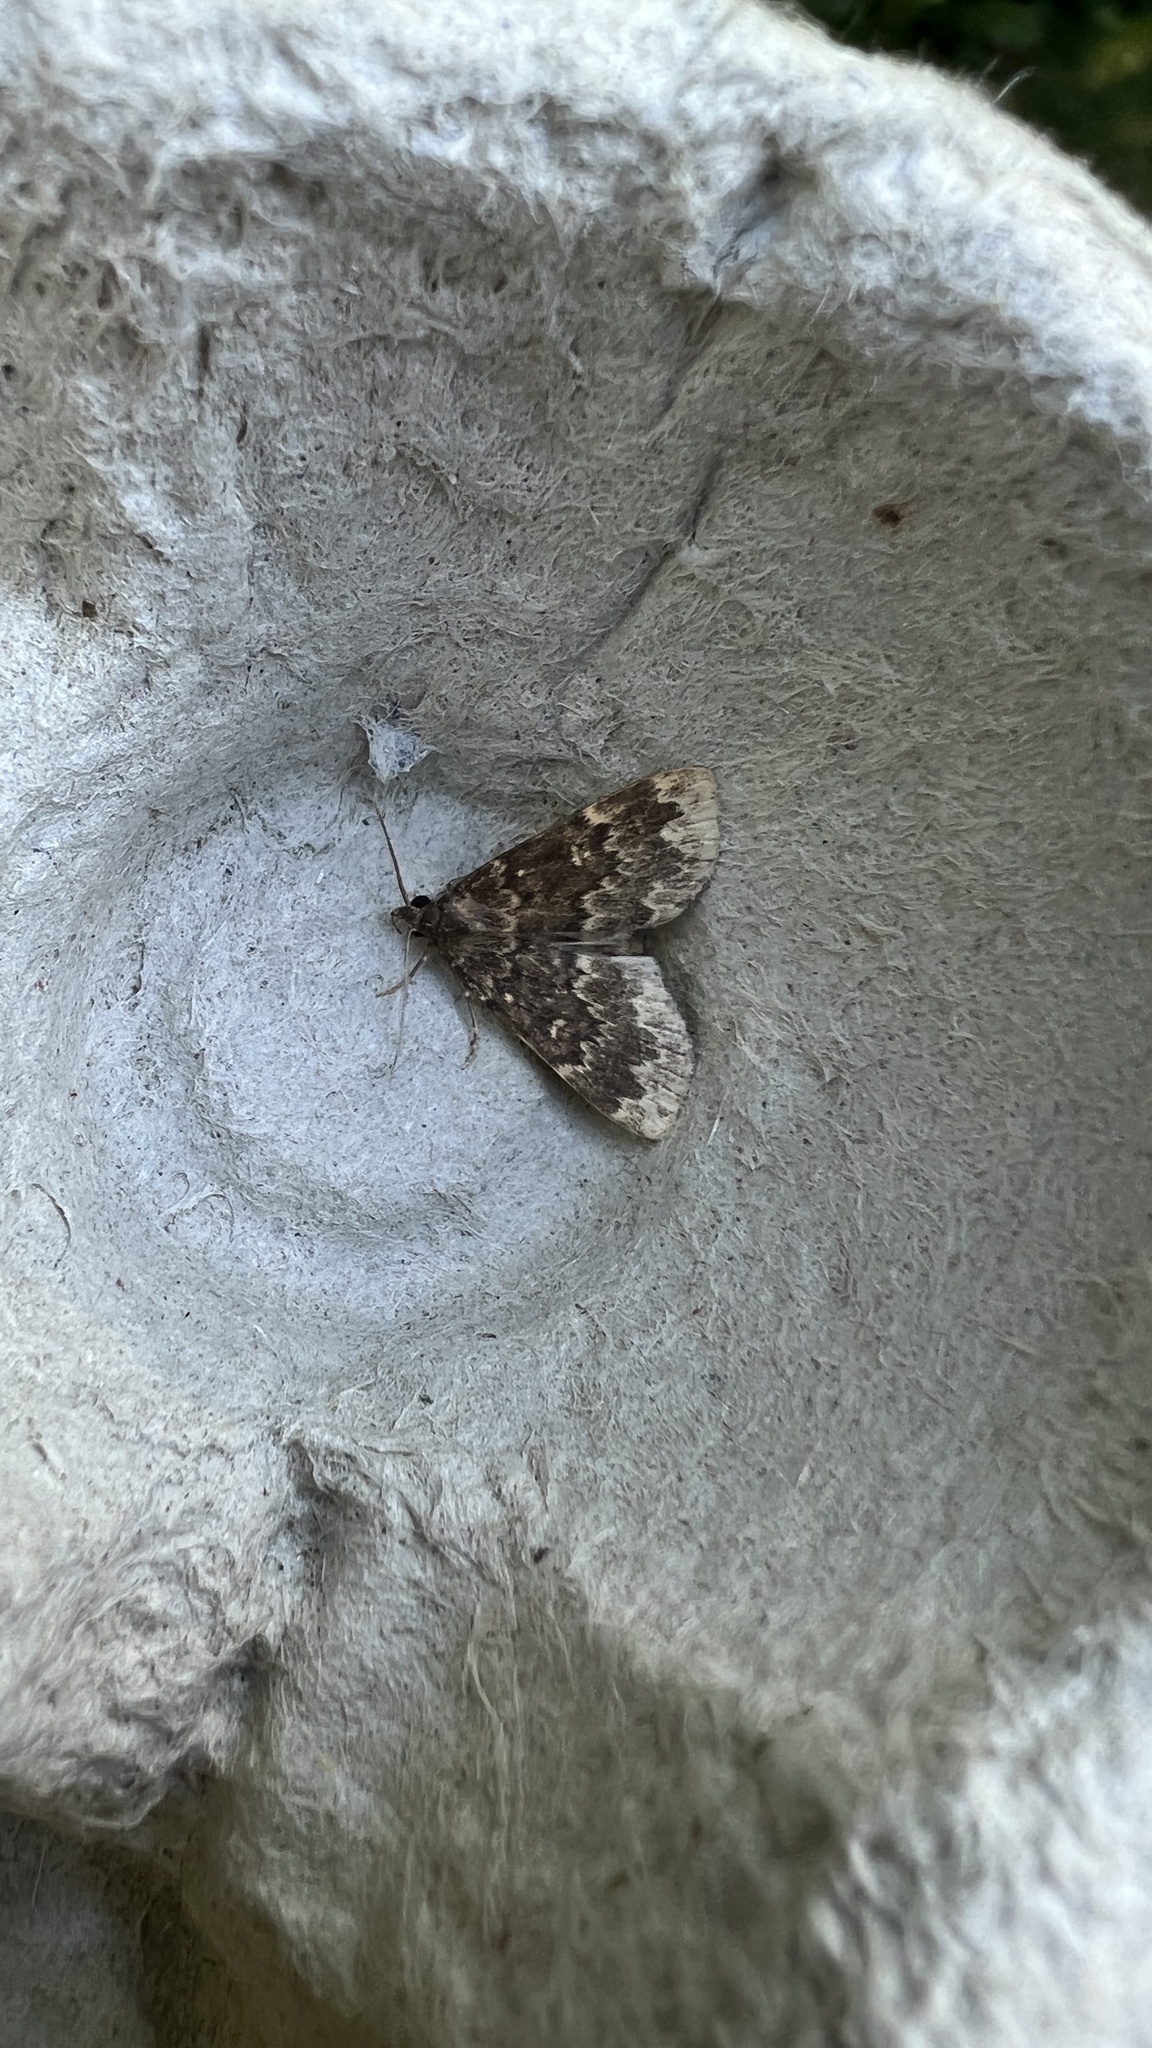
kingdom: Animalia
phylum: Arthropoda
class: Insecta
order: Lepidoptera
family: Erebidae
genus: Idia
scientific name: Idia lubricalis
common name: Twin-striped tabby
